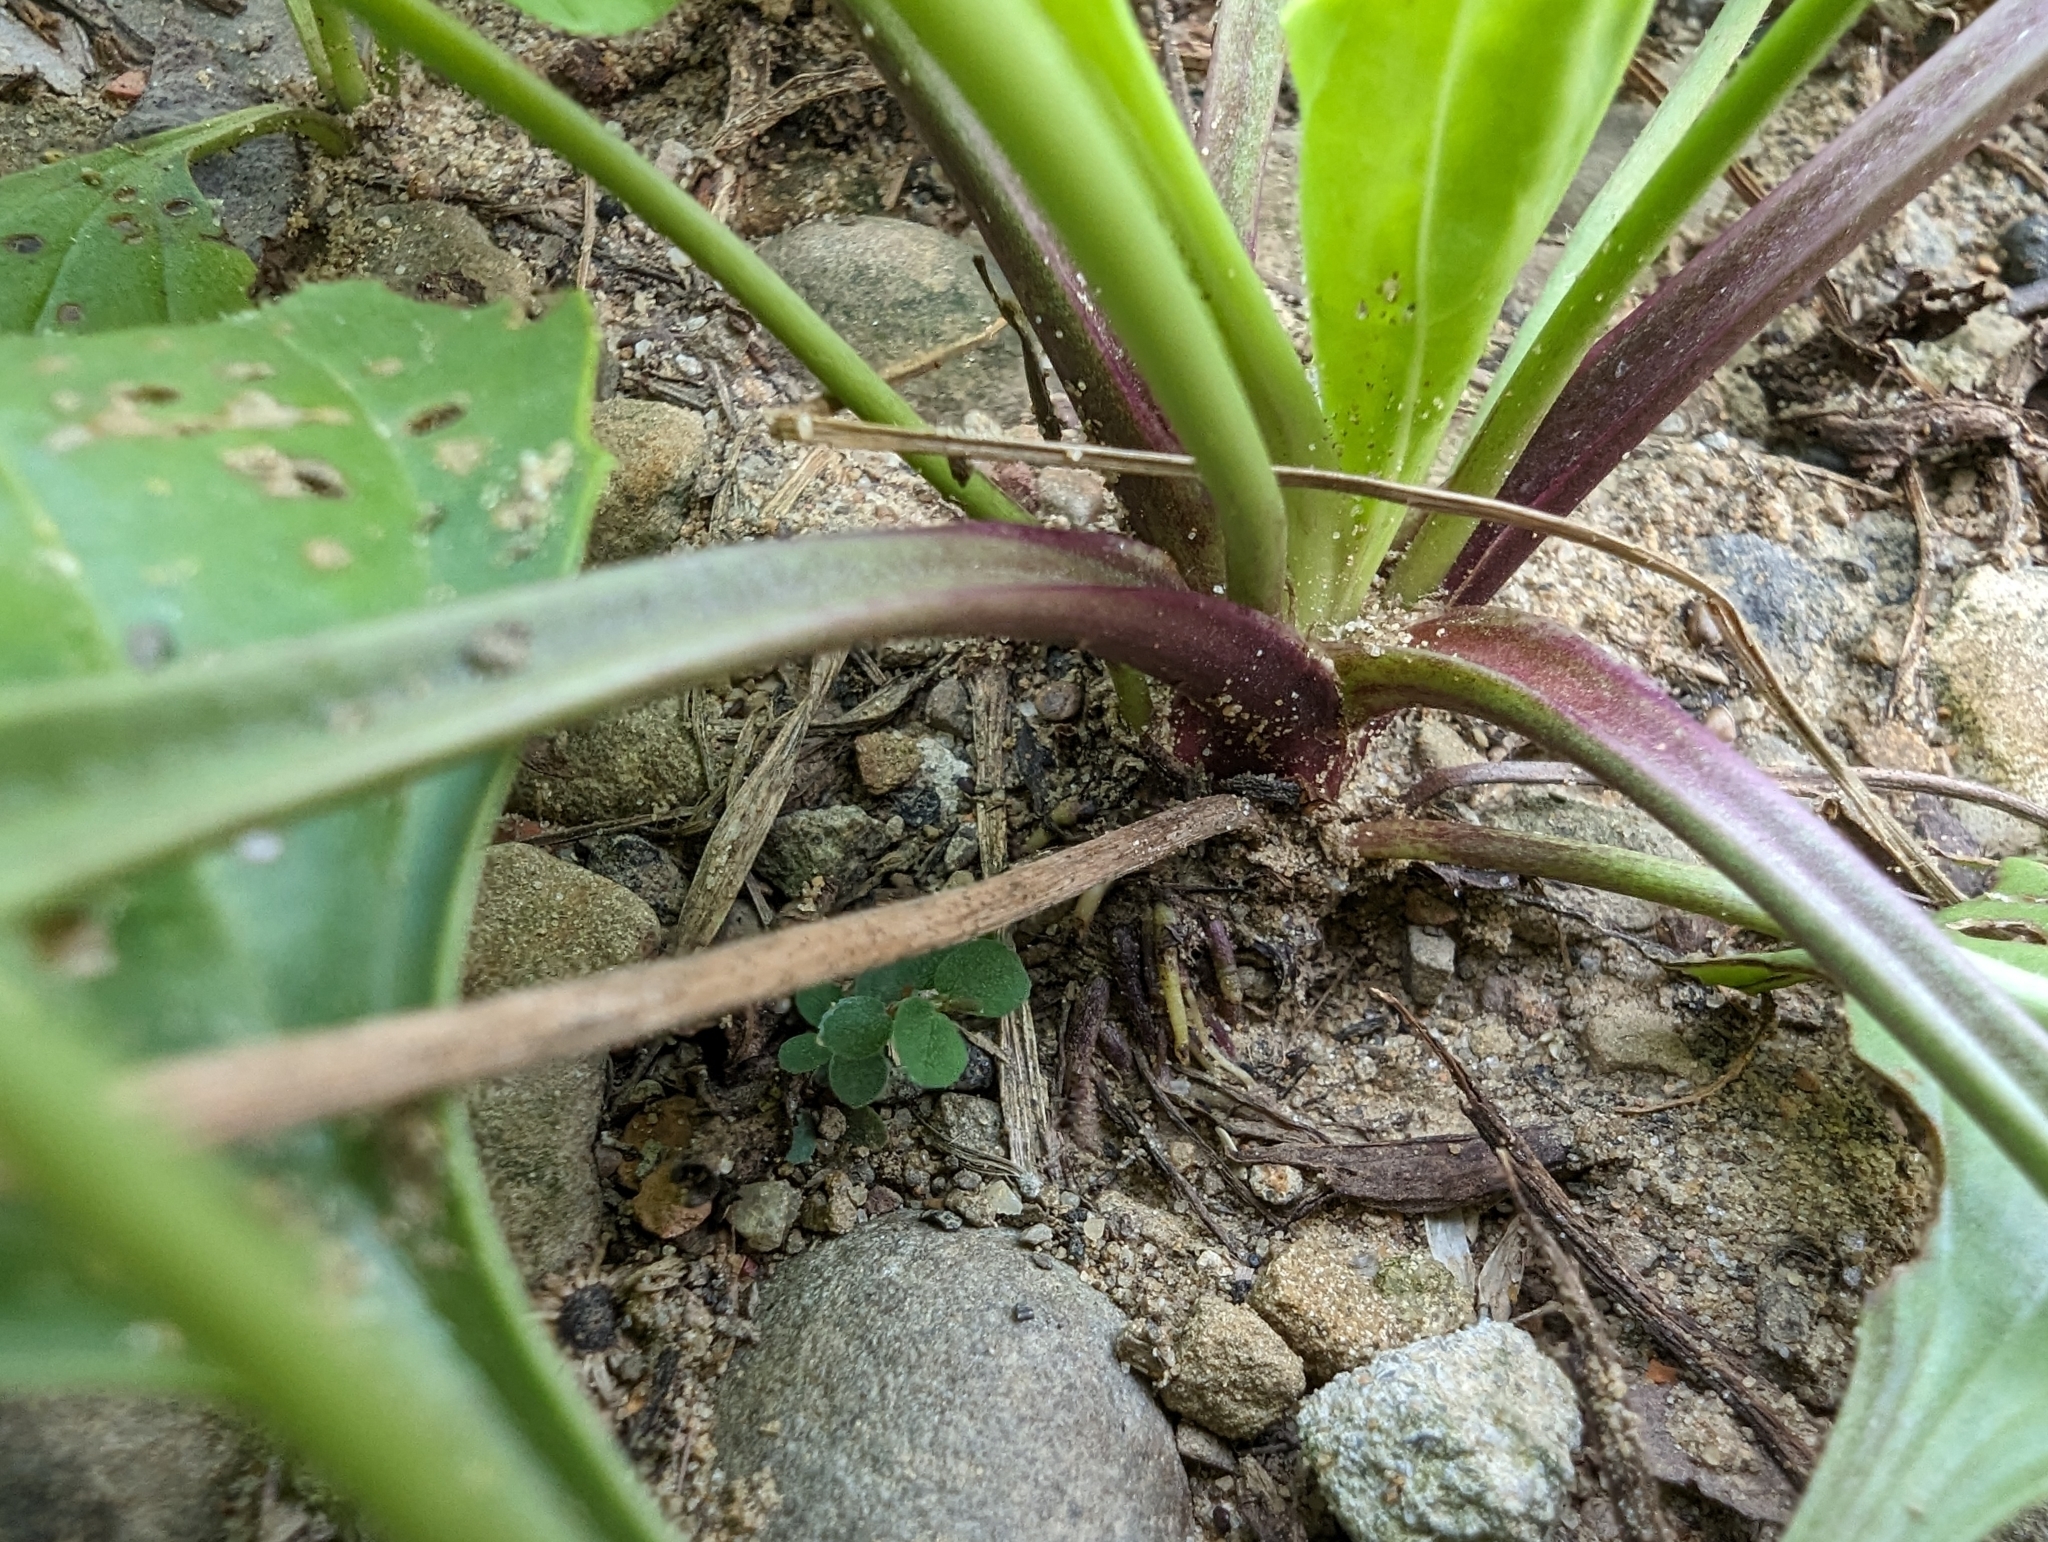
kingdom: Plantae
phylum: Tracheophyta
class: Magnoliopsida
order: Lamiales
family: Plantaginaceae
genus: Plantago
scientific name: Plantago asiatica
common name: Psyllium
